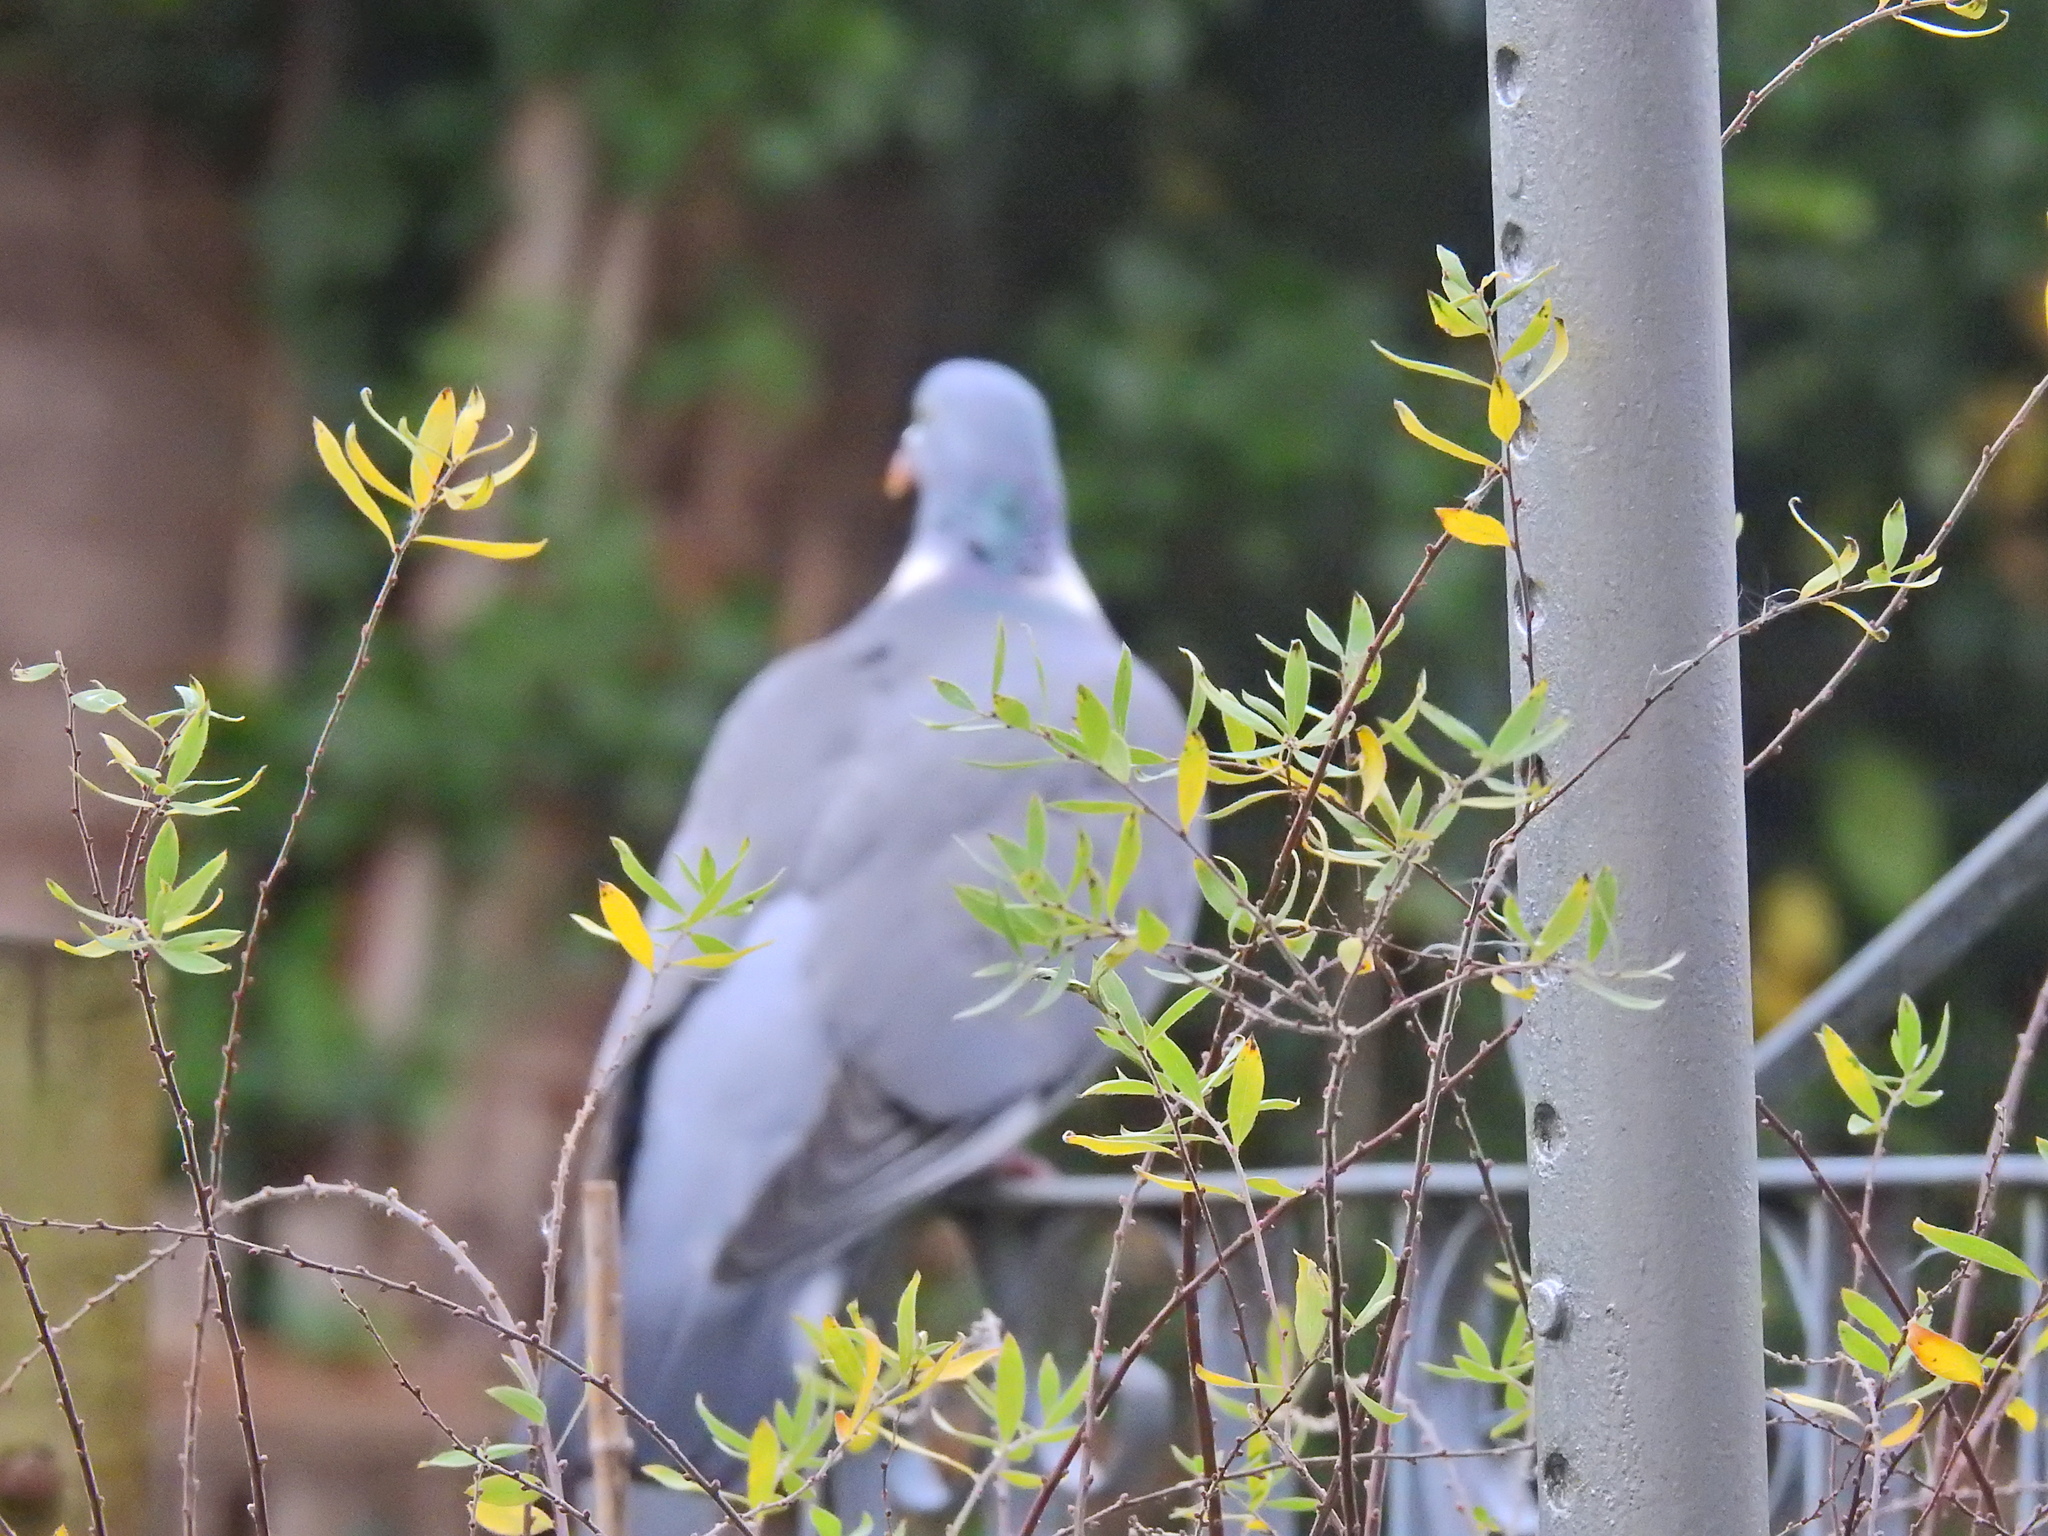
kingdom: Animalia
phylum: Chordata
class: Aves
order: Columbiformes
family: Columbidae
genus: Columba
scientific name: Columba palumbus
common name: Common wood pigeon
